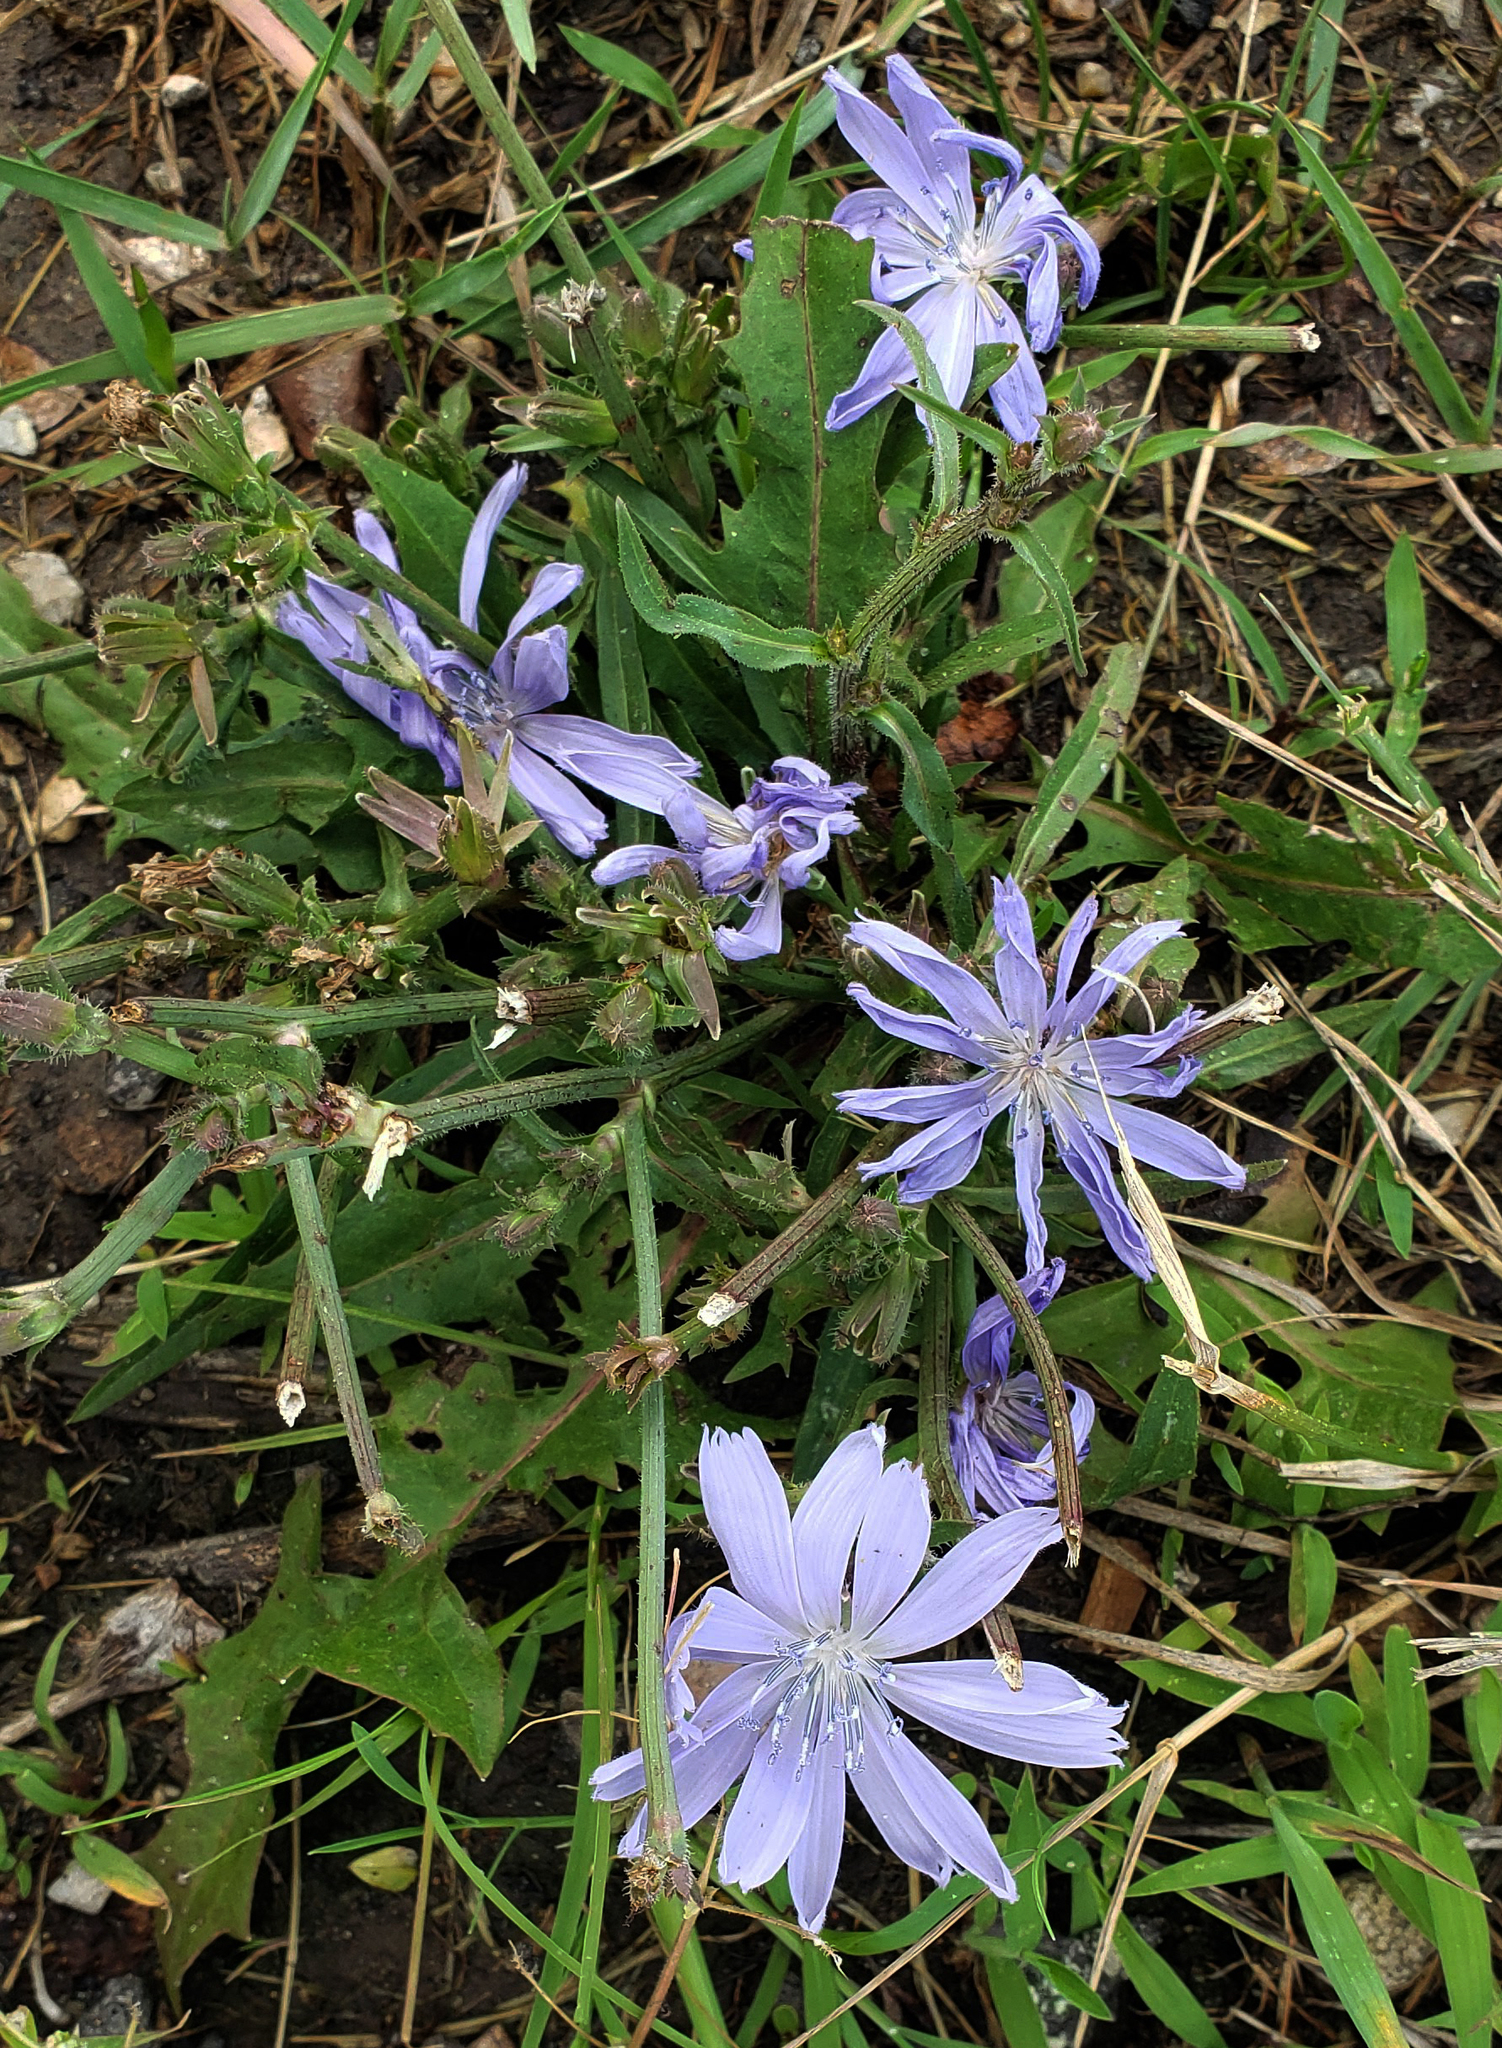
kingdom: Plantae
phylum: Tracheophyta
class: Magnoliopsida
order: Asterales
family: Asteraceae
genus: Cichorium
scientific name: Cichorium intybus
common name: Chicory
